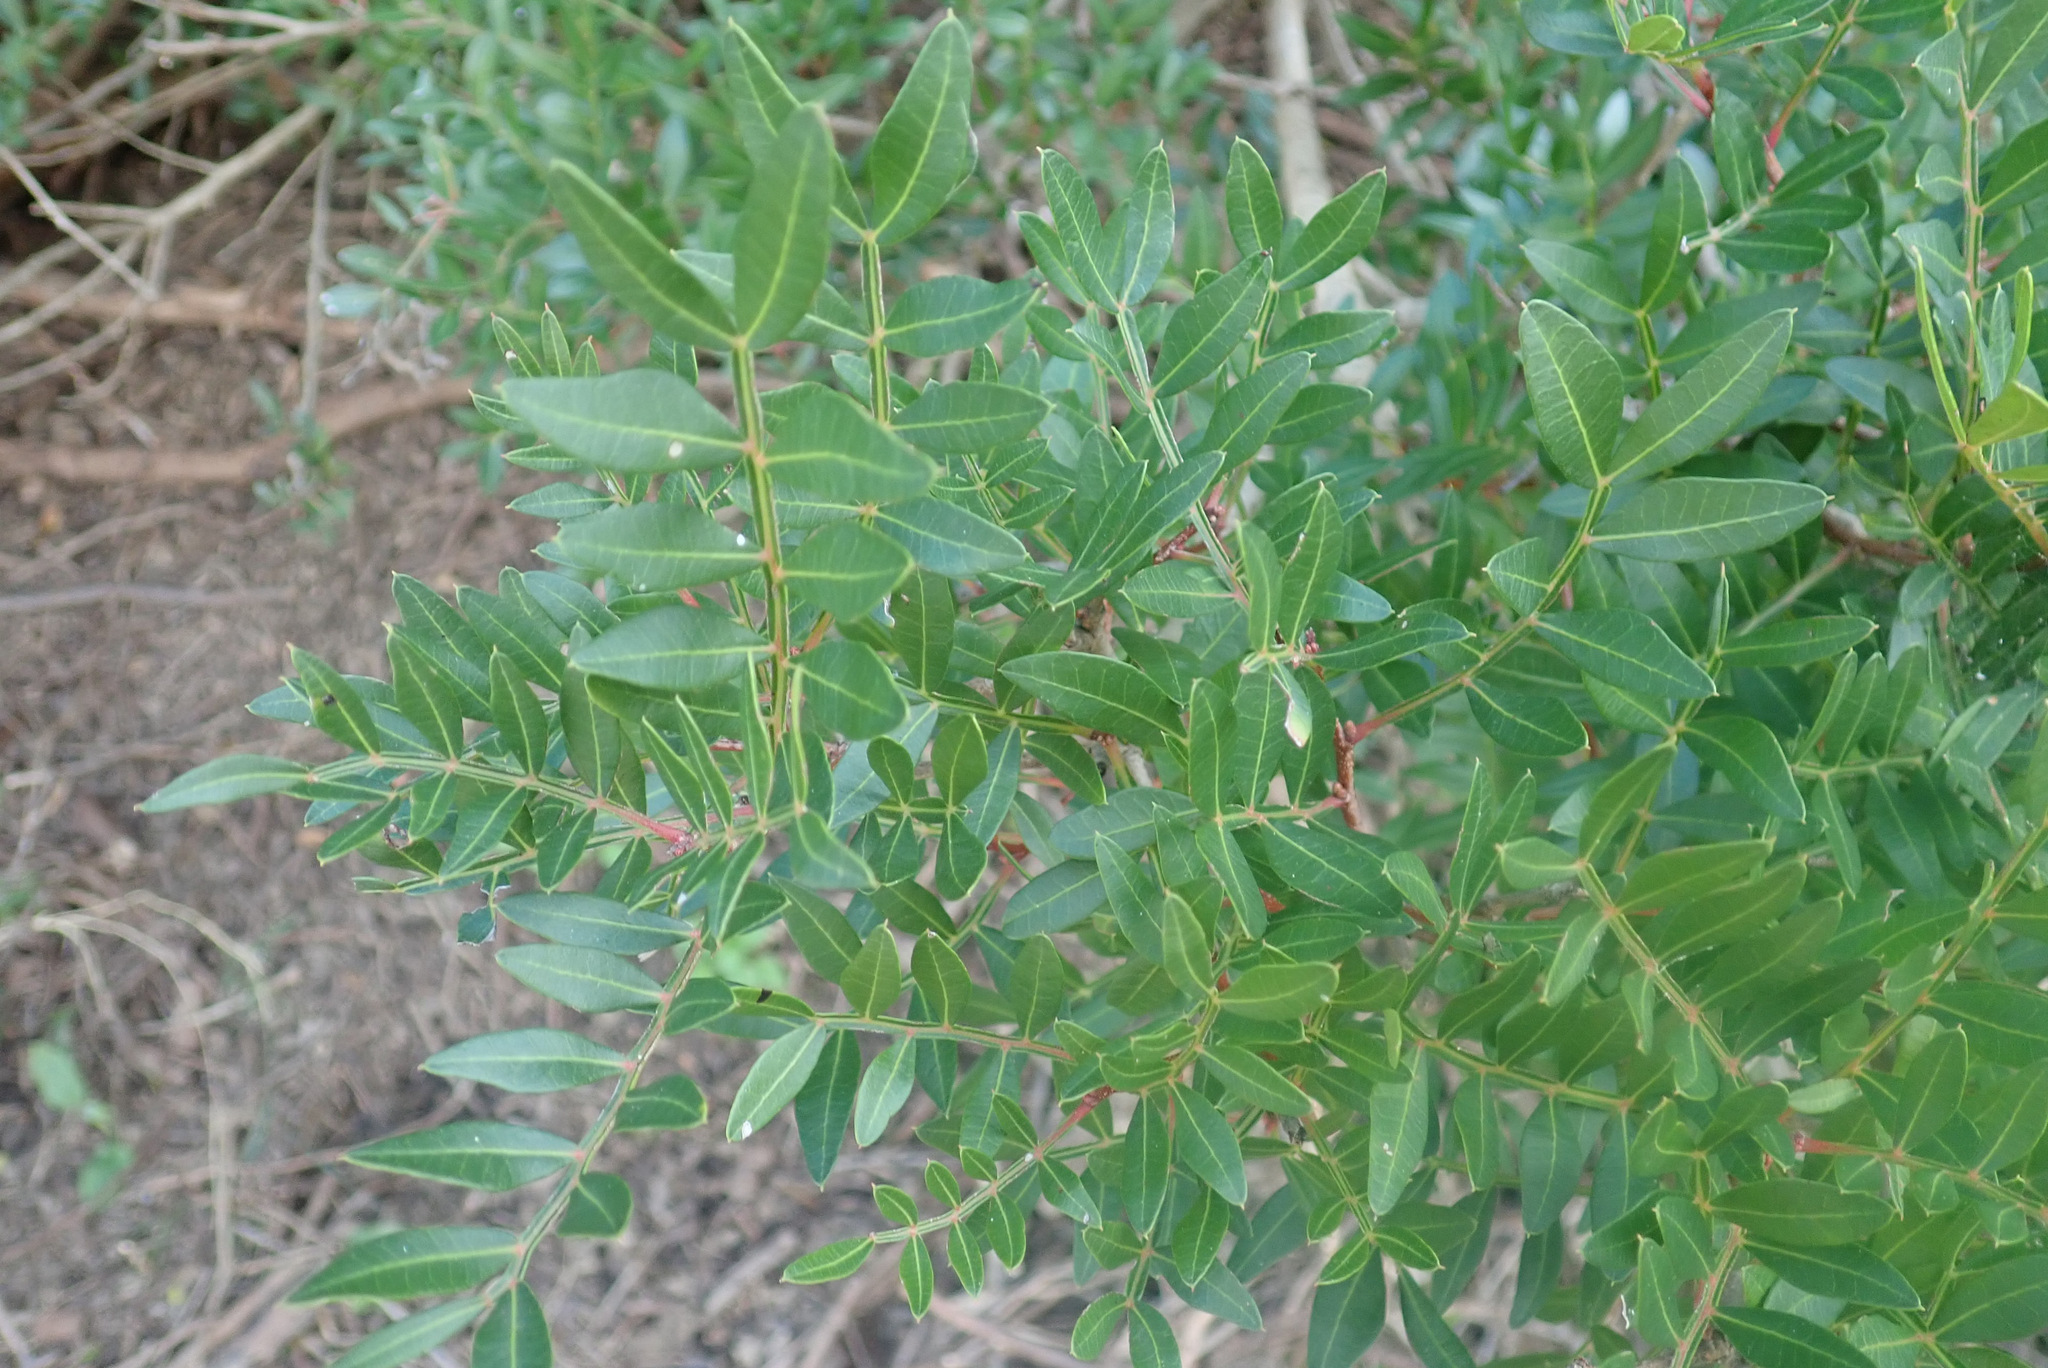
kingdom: Plantae
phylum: Tracheophyta
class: Magnoliopsida
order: Sapindales
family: Anacardiaceae
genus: Pistacia
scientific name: Pistacia lentiscus
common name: Lentisk
